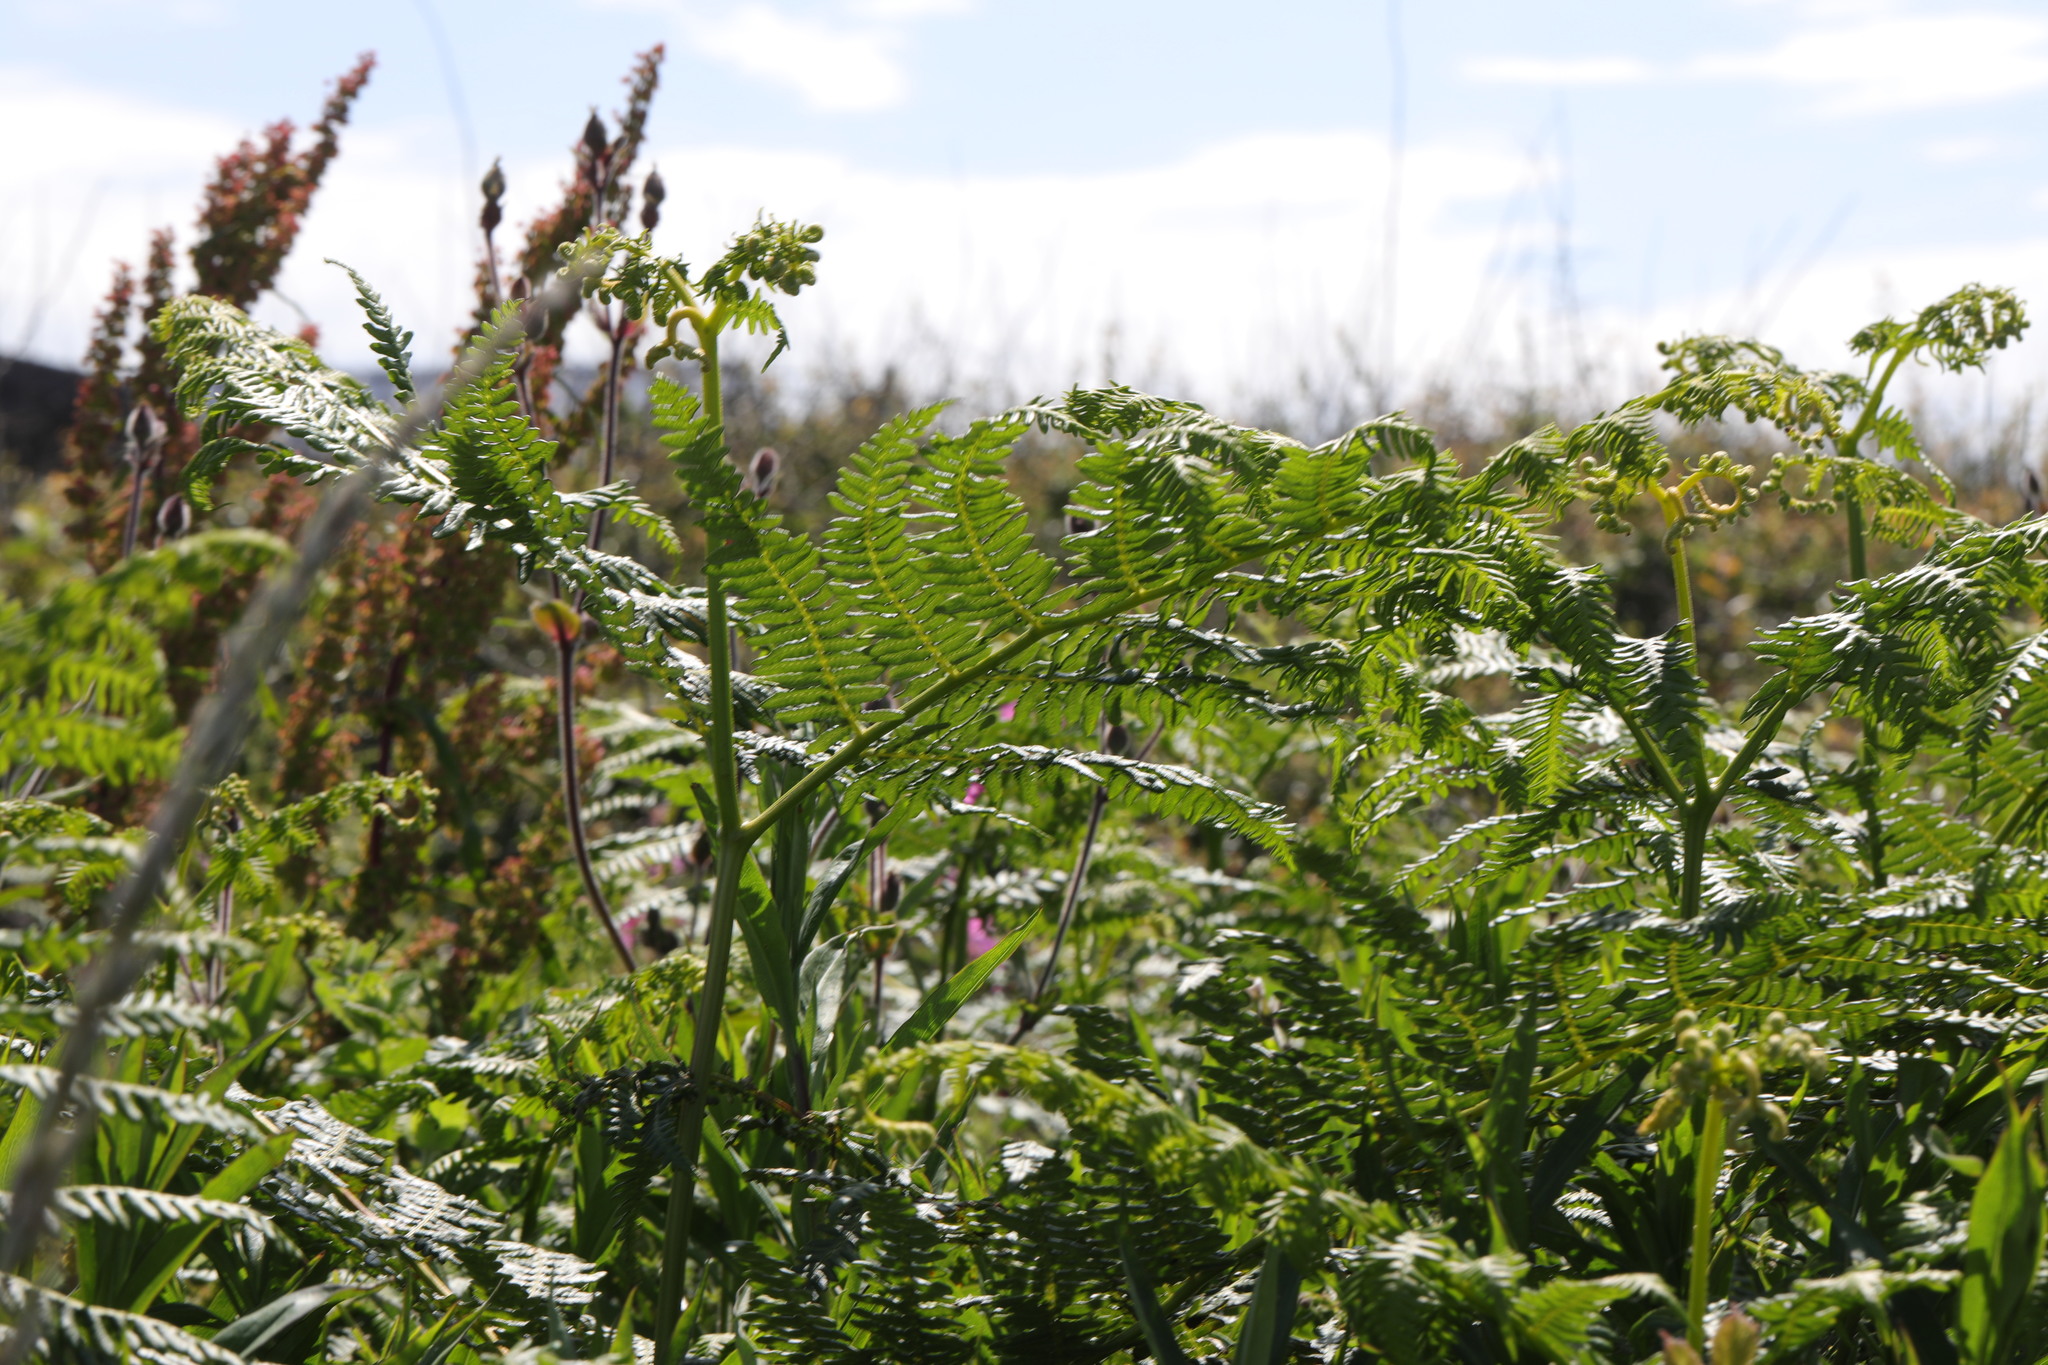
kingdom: Plantae
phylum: Tracheophyta
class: Polypodiopsida
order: Polypodiales
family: Dennstaedtiaceae
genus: Pteridium
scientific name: Pteridium aquilinum
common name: Bracken
